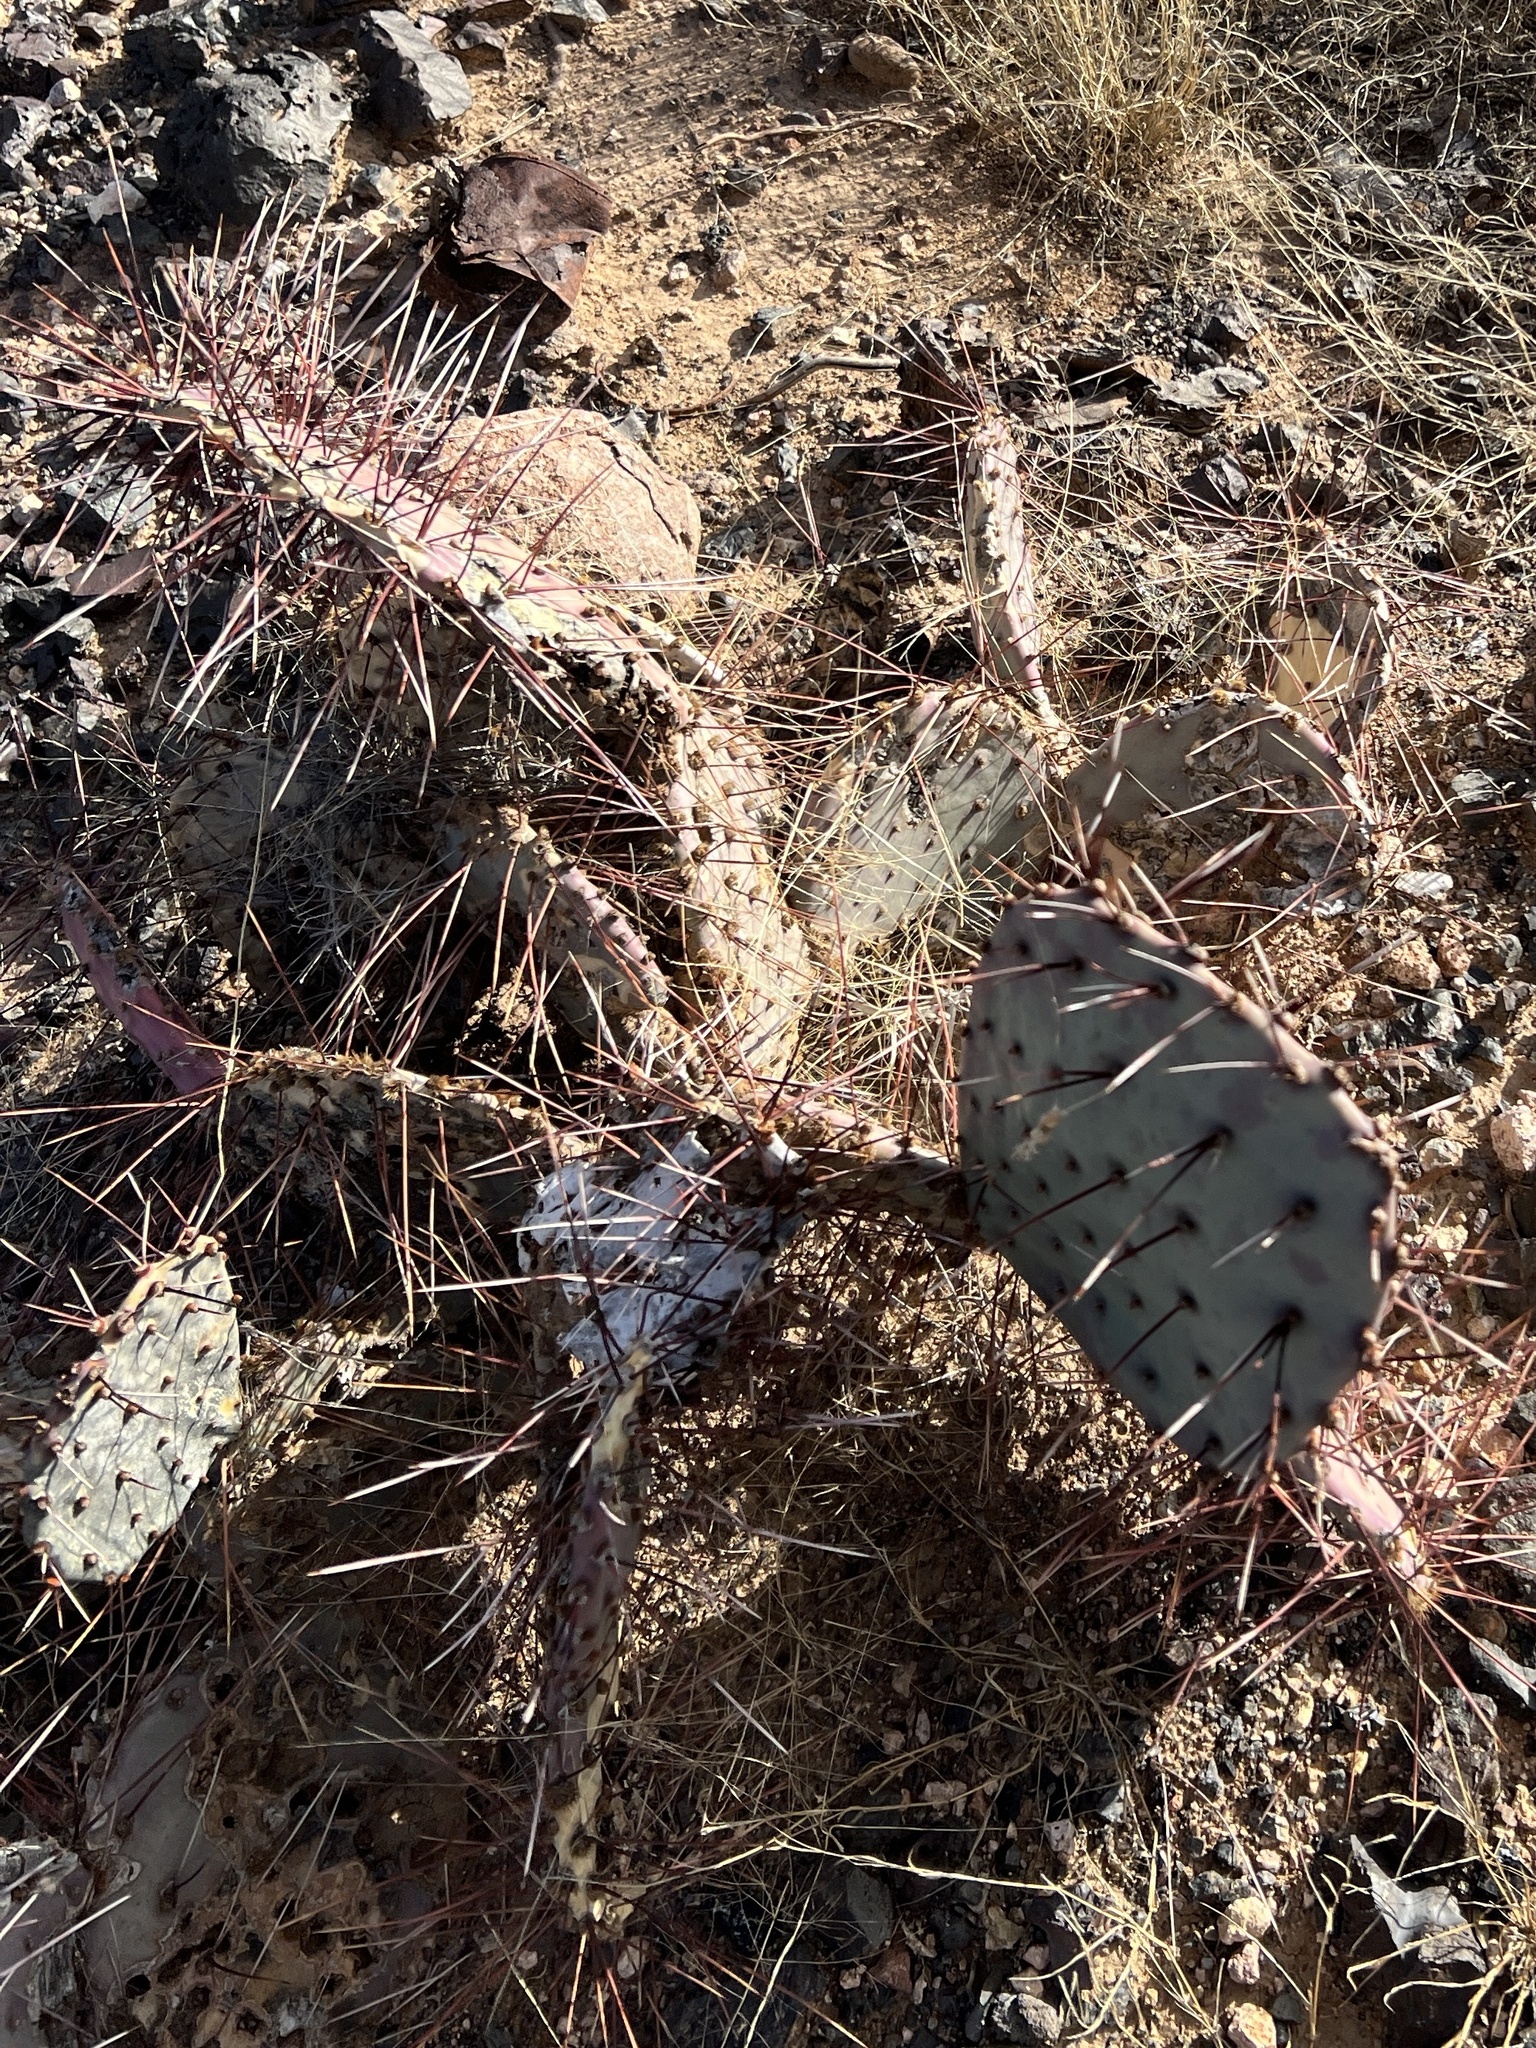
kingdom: Plantae
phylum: Tracheophyta
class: Magnoliopsida
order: Caryophyllales
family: Cactaceae
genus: Opuntia
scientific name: Opuntia macrocentra
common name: Purple prickly-pear
